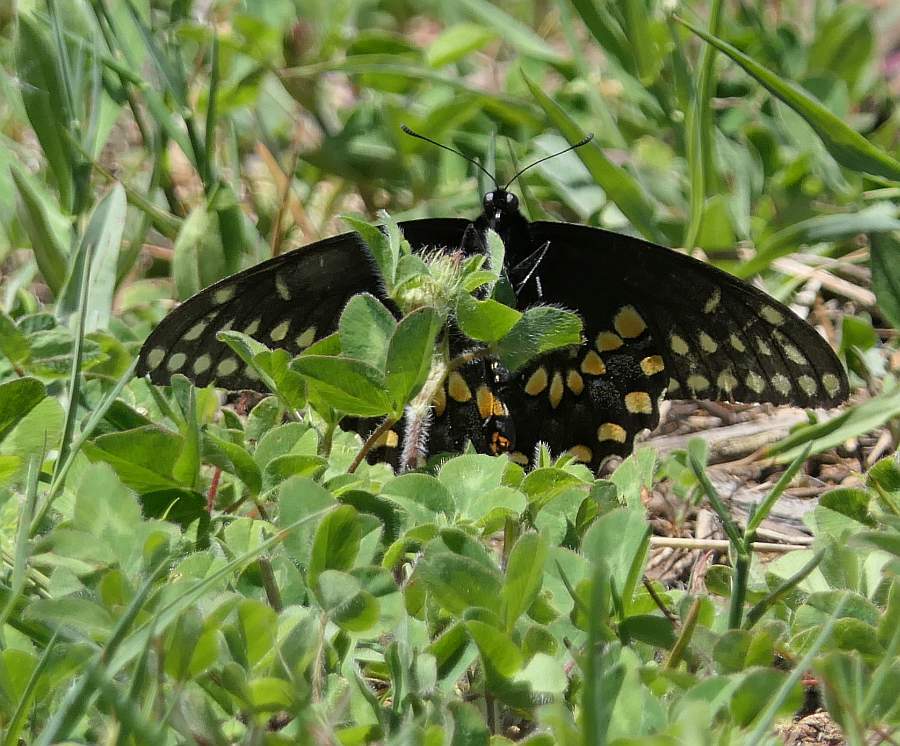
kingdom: Animalia
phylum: Arthropoda
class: Insecta
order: Lepidoptera
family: Papilionidae
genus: Papilio
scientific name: Papilio polyxenes
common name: Black swallowtail
